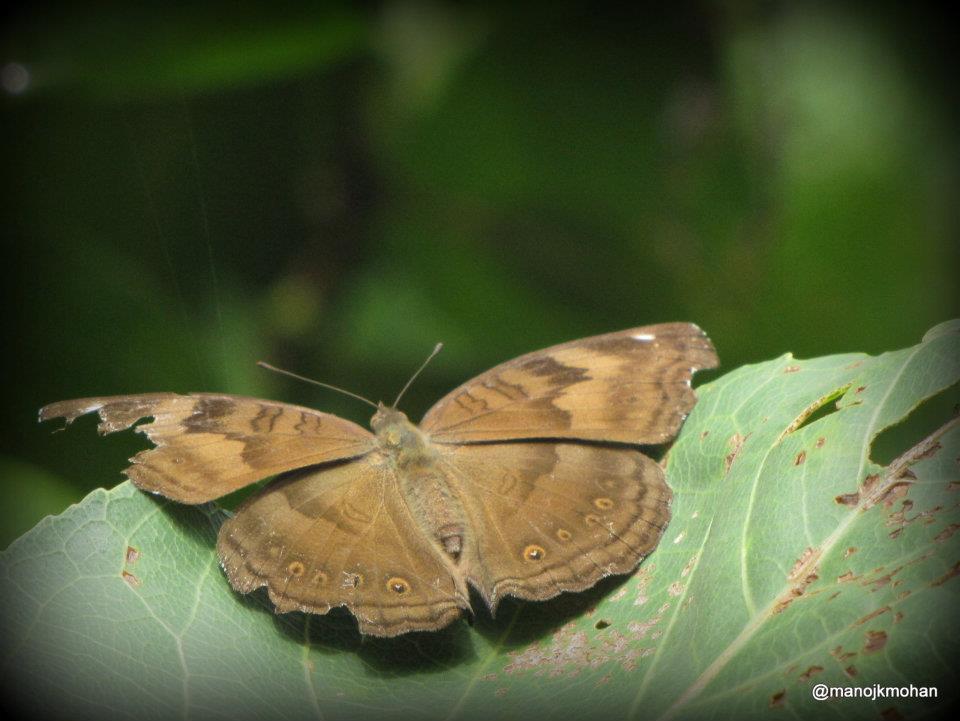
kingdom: Animalia
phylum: Arthropoda
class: Insecta
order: Lepidoptera
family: Nymphalidae
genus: Junonia
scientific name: Junonia iphita
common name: Chocolate pansy
